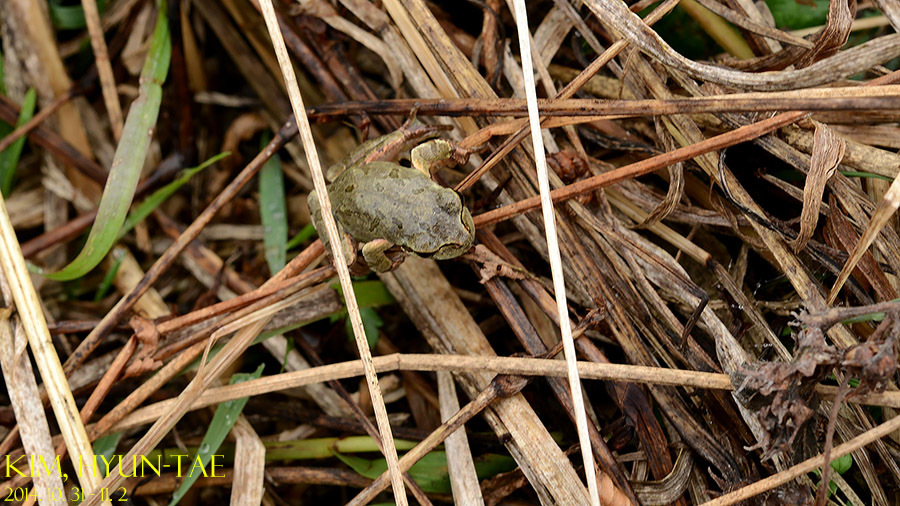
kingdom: Animalia
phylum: Chordata
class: Amphibia
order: Anura
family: Hylidae
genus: Dryophytes
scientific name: Dryophytes japonicus
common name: Japanese treefrog
